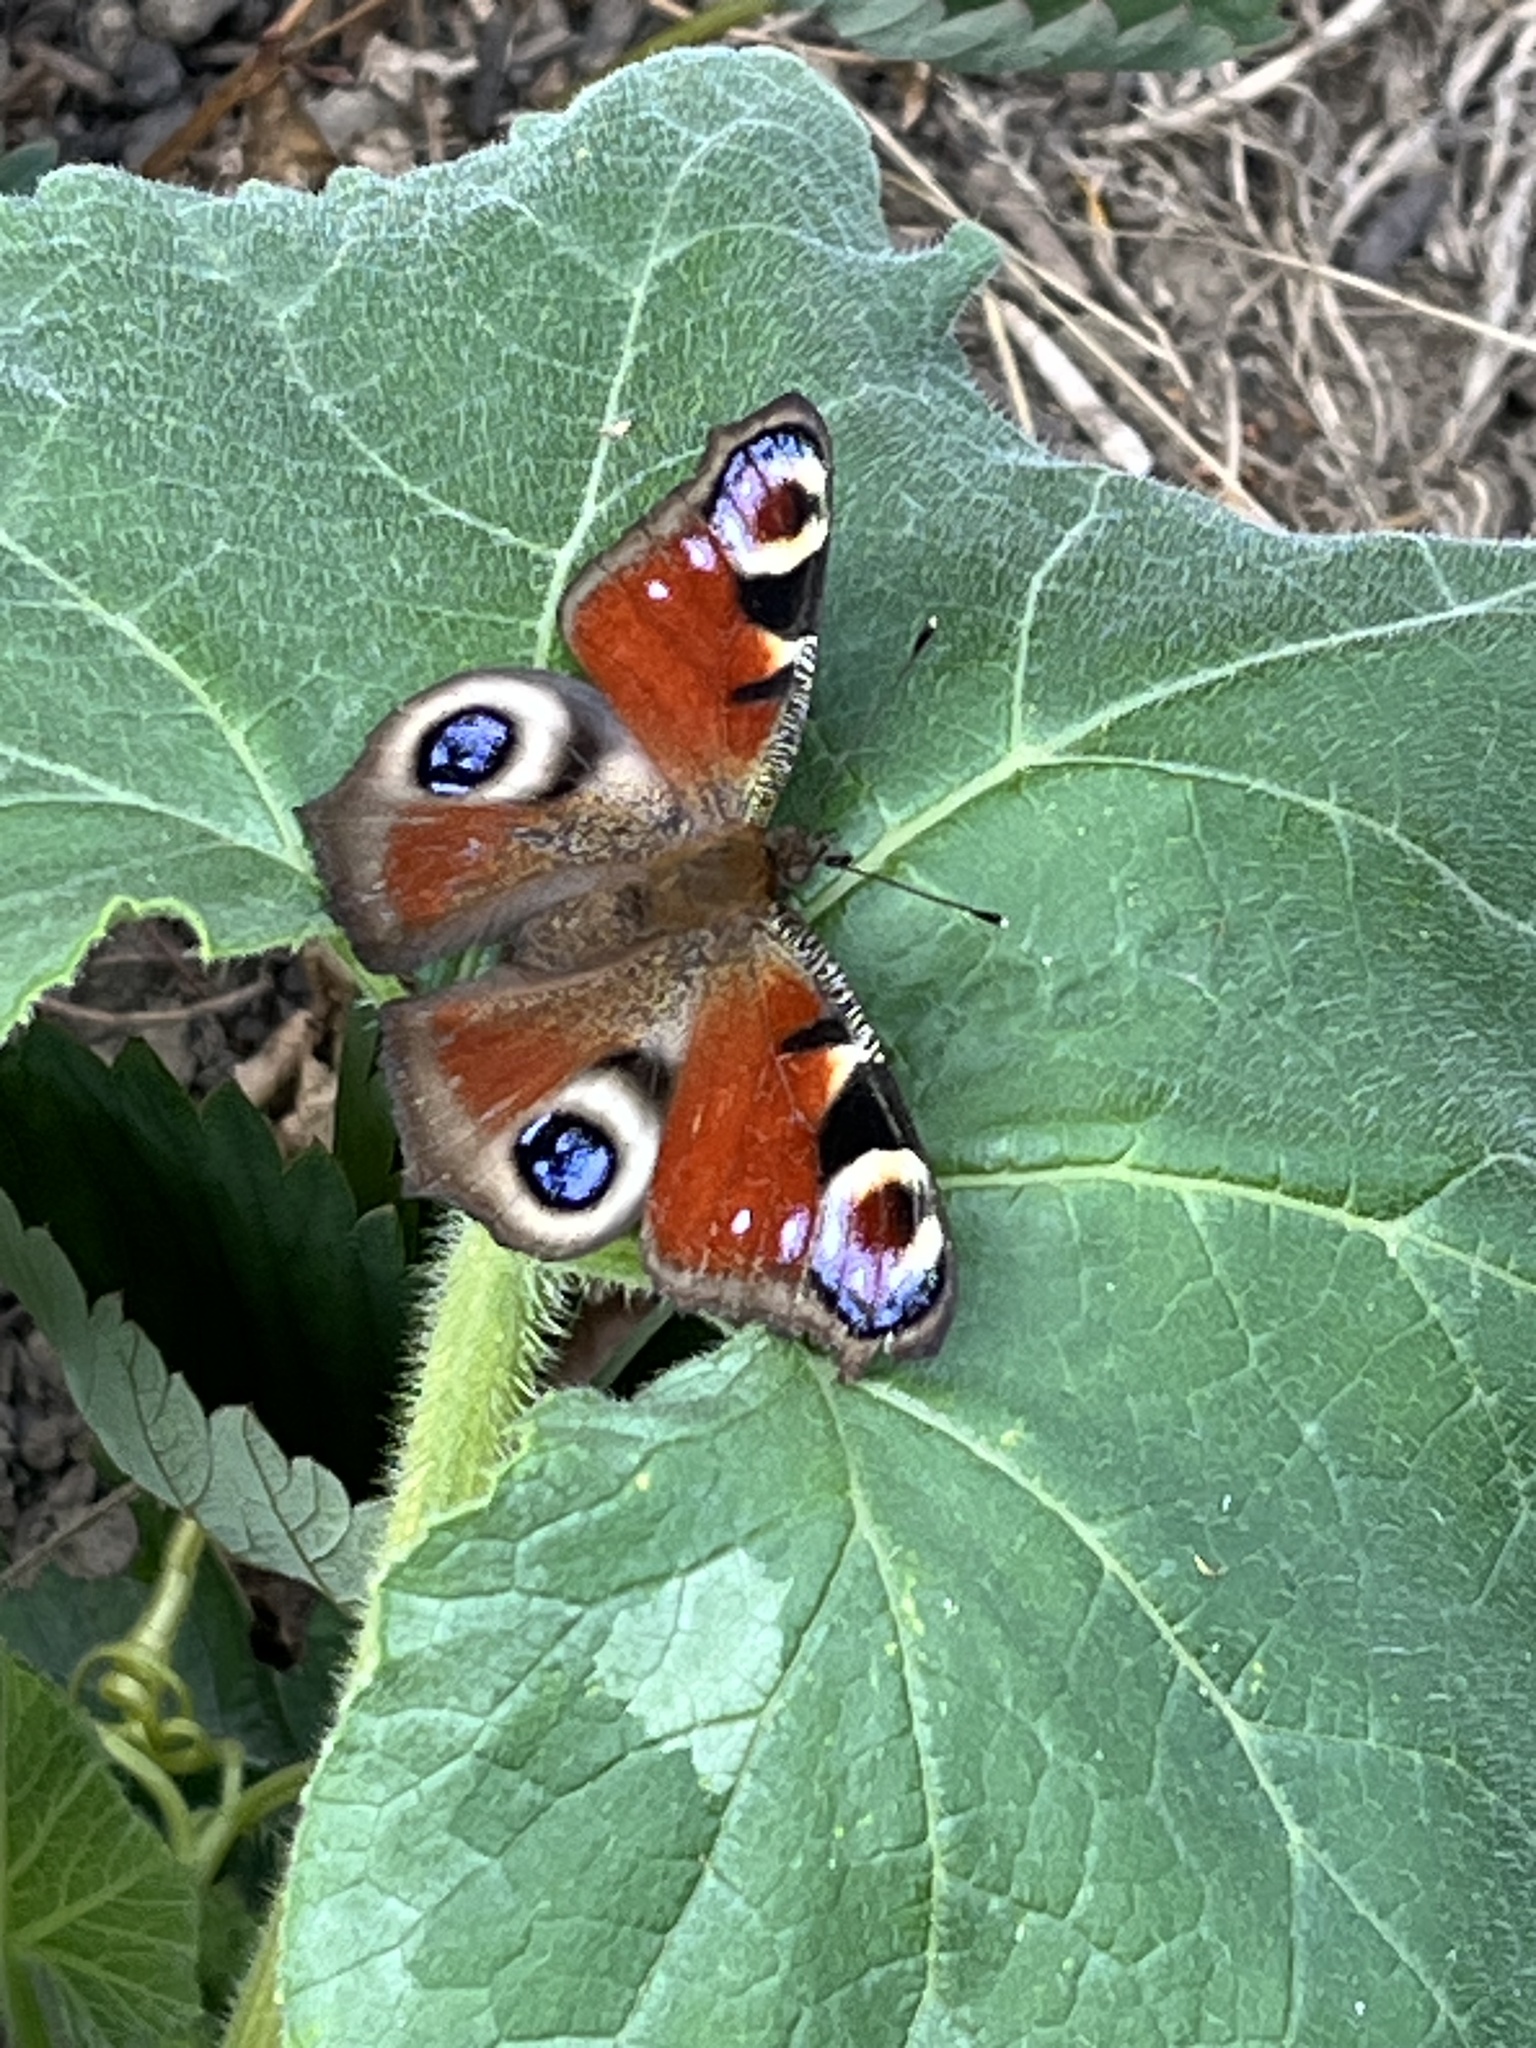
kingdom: Animalia
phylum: Arthropoda
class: Insecta
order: Lepidoptera
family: Nymphalidae
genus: Aglais
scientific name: Aglais io
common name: Peacock
